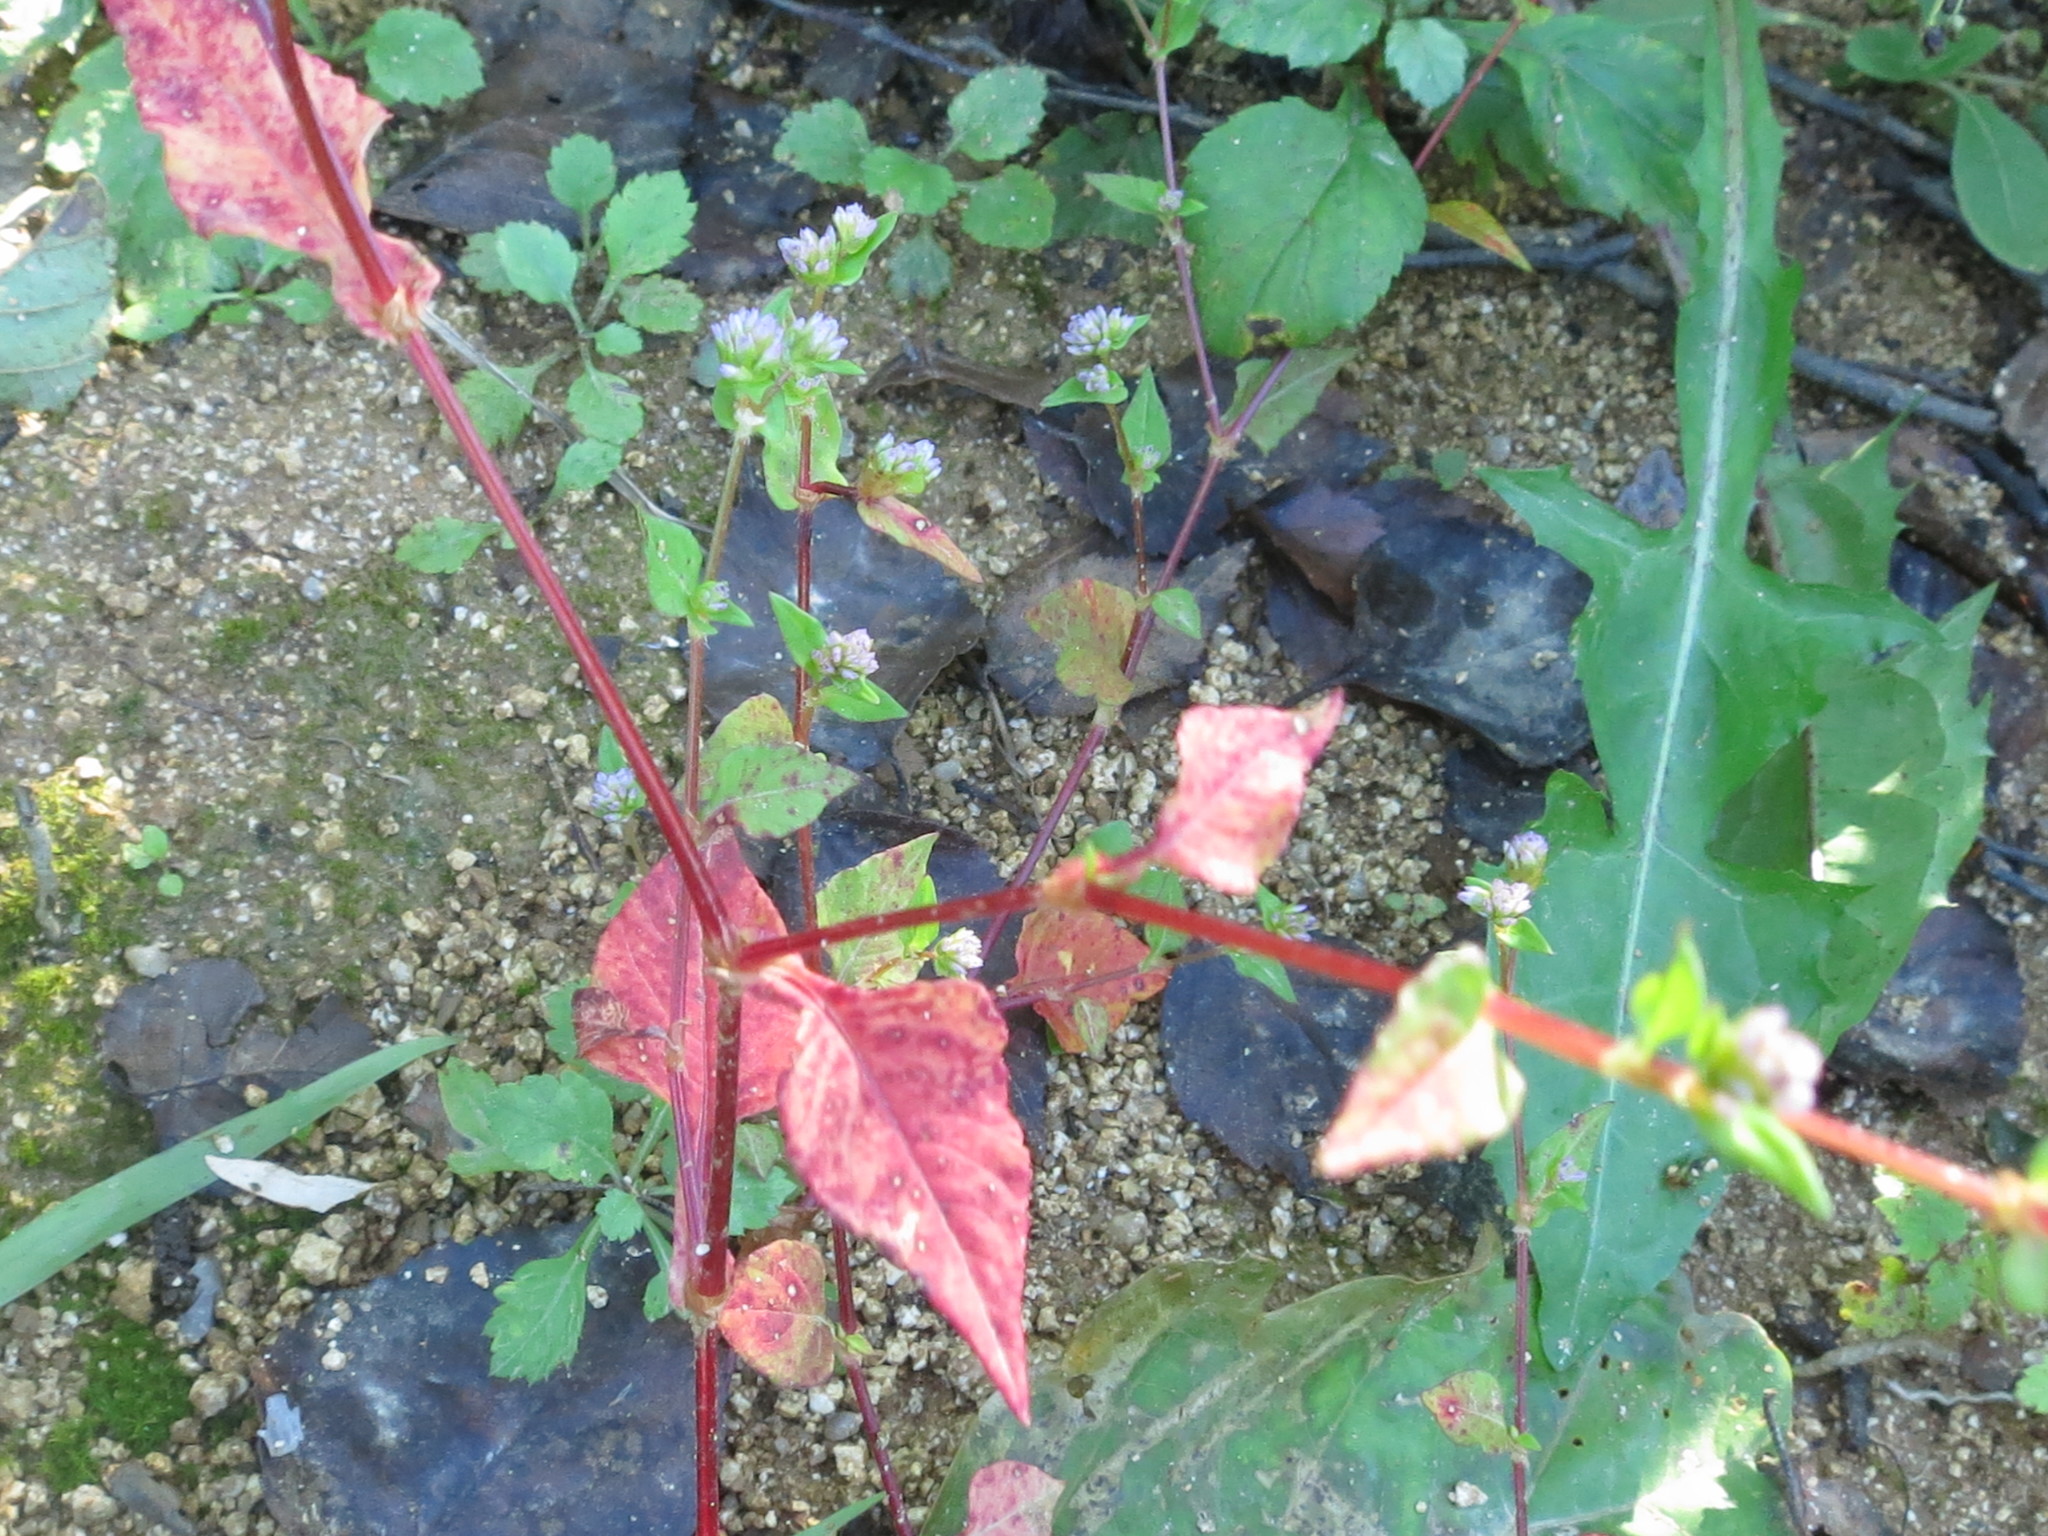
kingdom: Plantae
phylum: Tracheophyta
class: Magnoliopsida
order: Caryophyllales
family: Polygonaceae
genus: Persicaria
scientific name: Persicaria nepalensis
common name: Nepal persicaria
